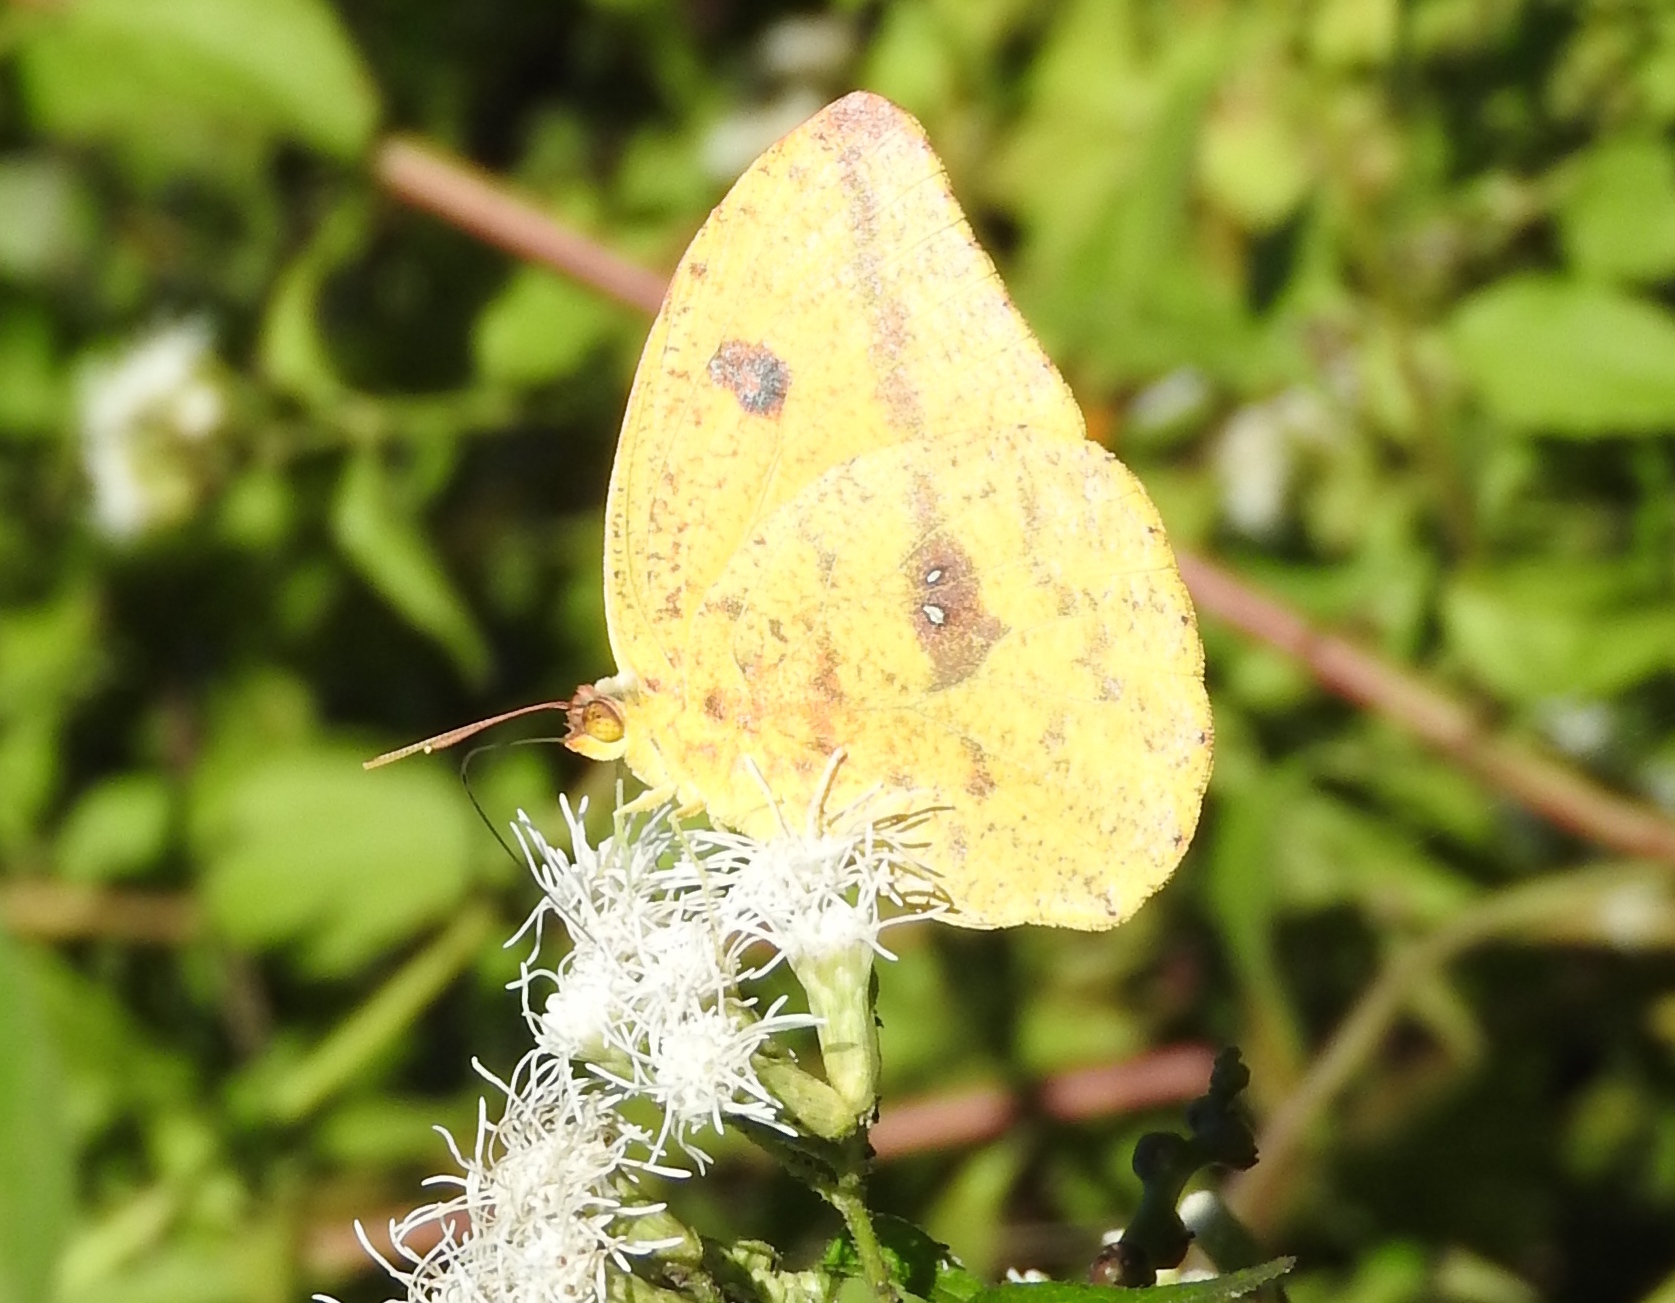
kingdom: Animalia
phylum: Arthropoda
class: Insecta
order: Lepidoptera
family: Pieridae
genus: Phoebis
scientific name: Phoebis agarithe
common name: Large orange sulphur
